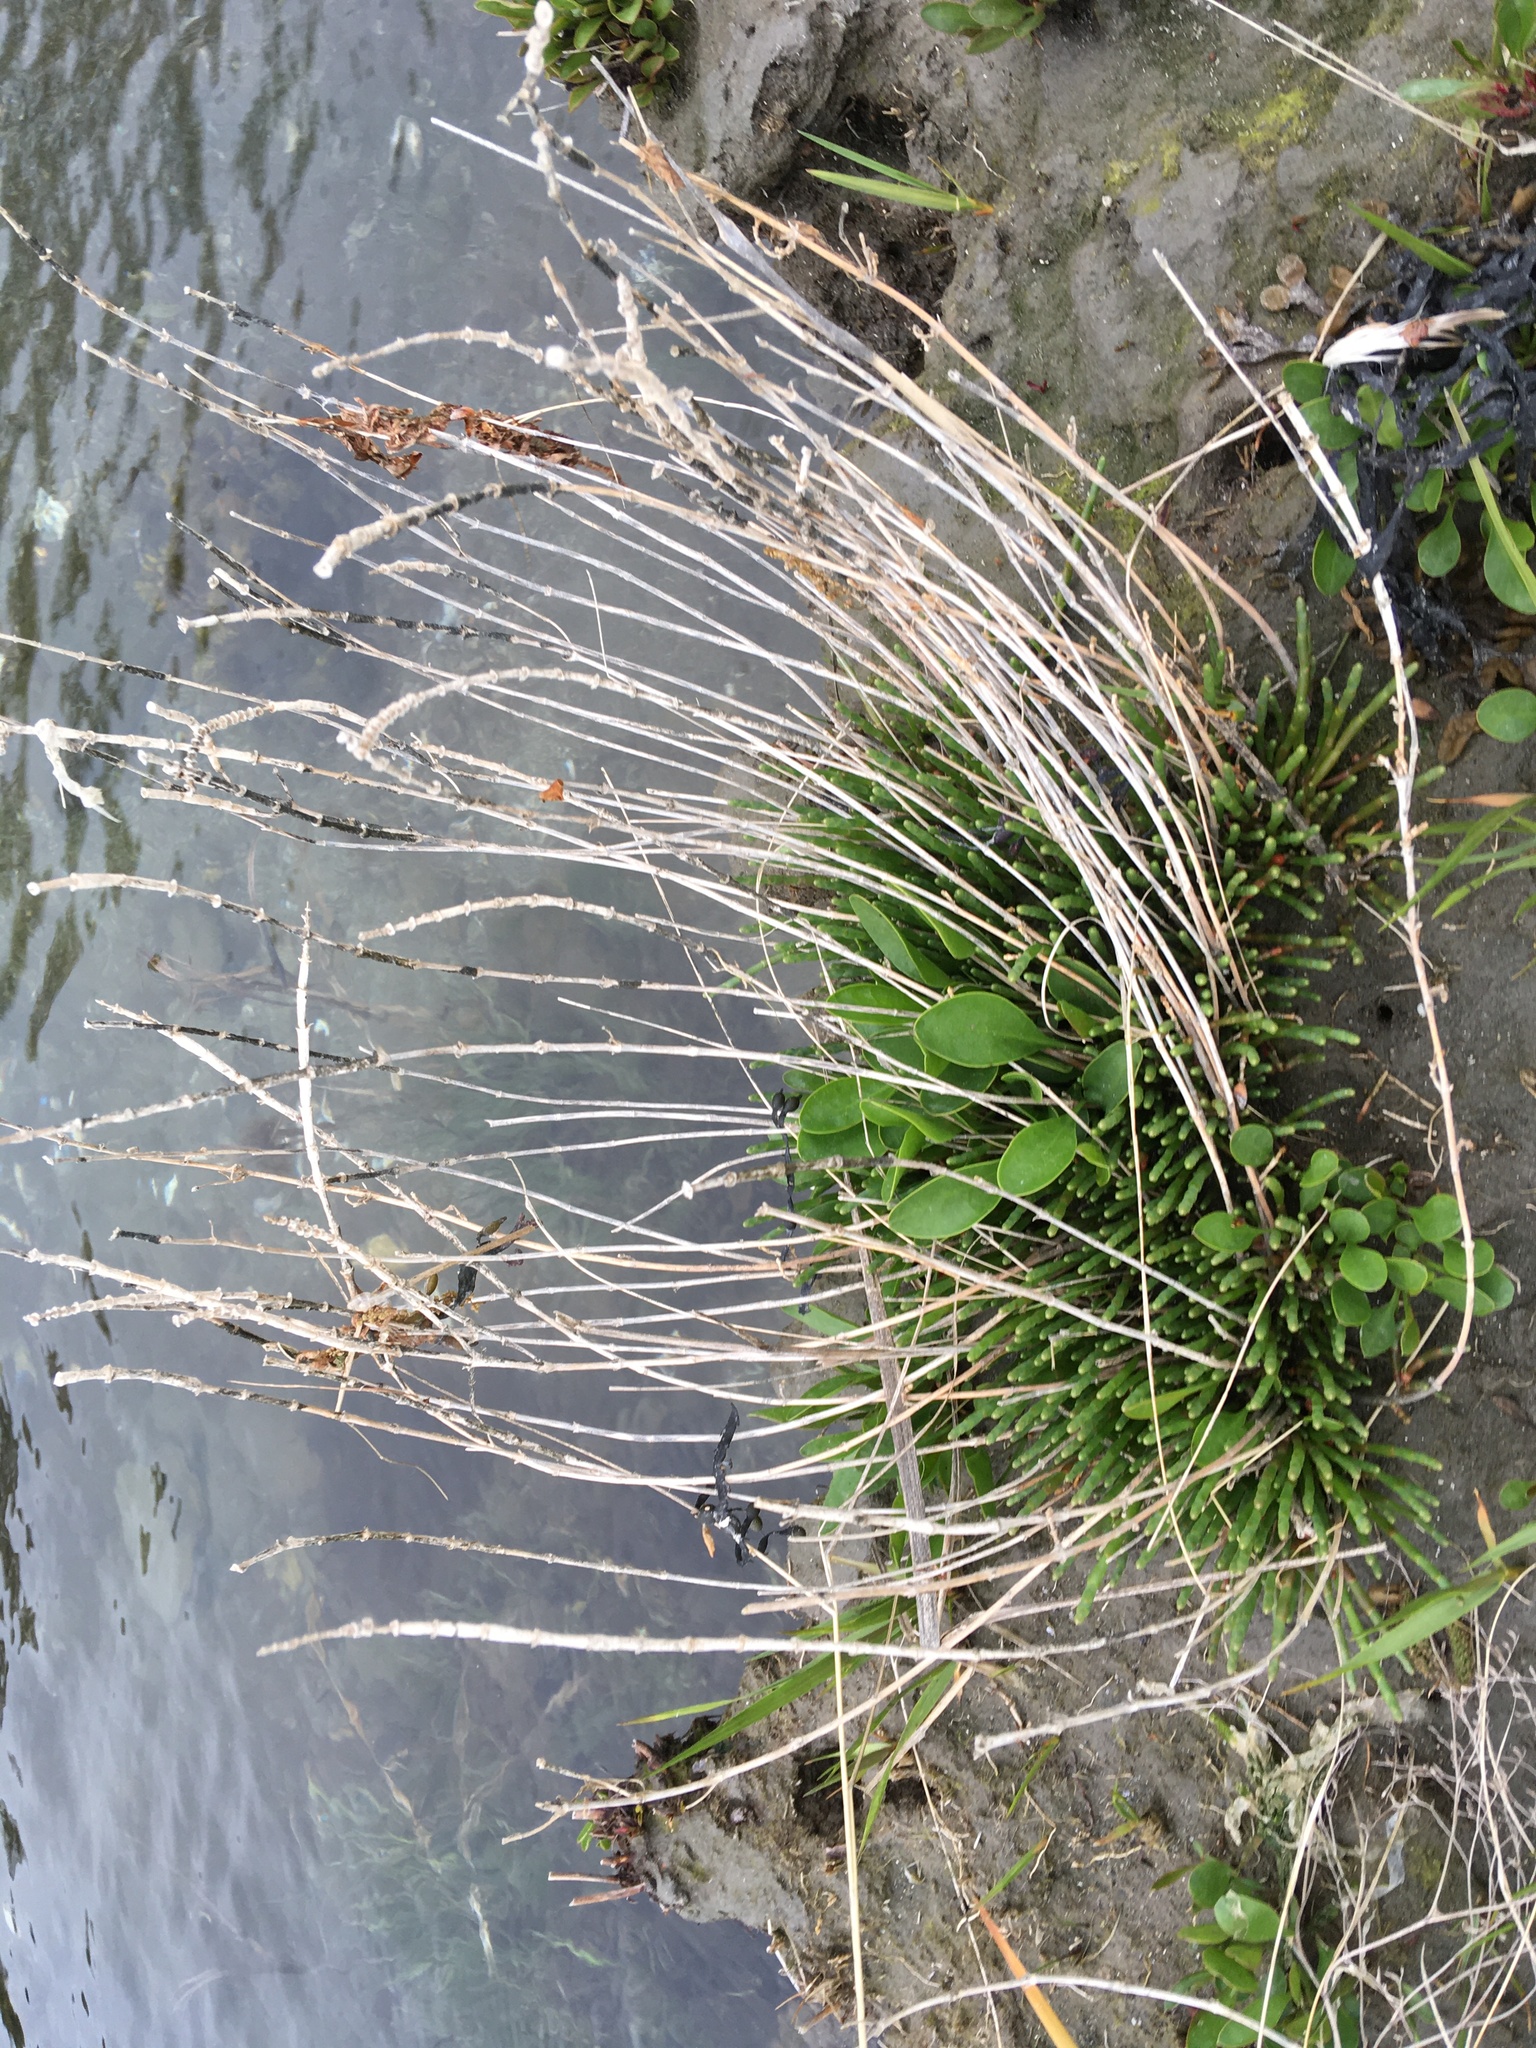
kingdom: Plantae
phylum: Tracheophyta
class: Magnoliopsida
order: Caryophyllales
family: Amaranthaceae
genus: Salicornia
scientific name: Salicornia virginica
